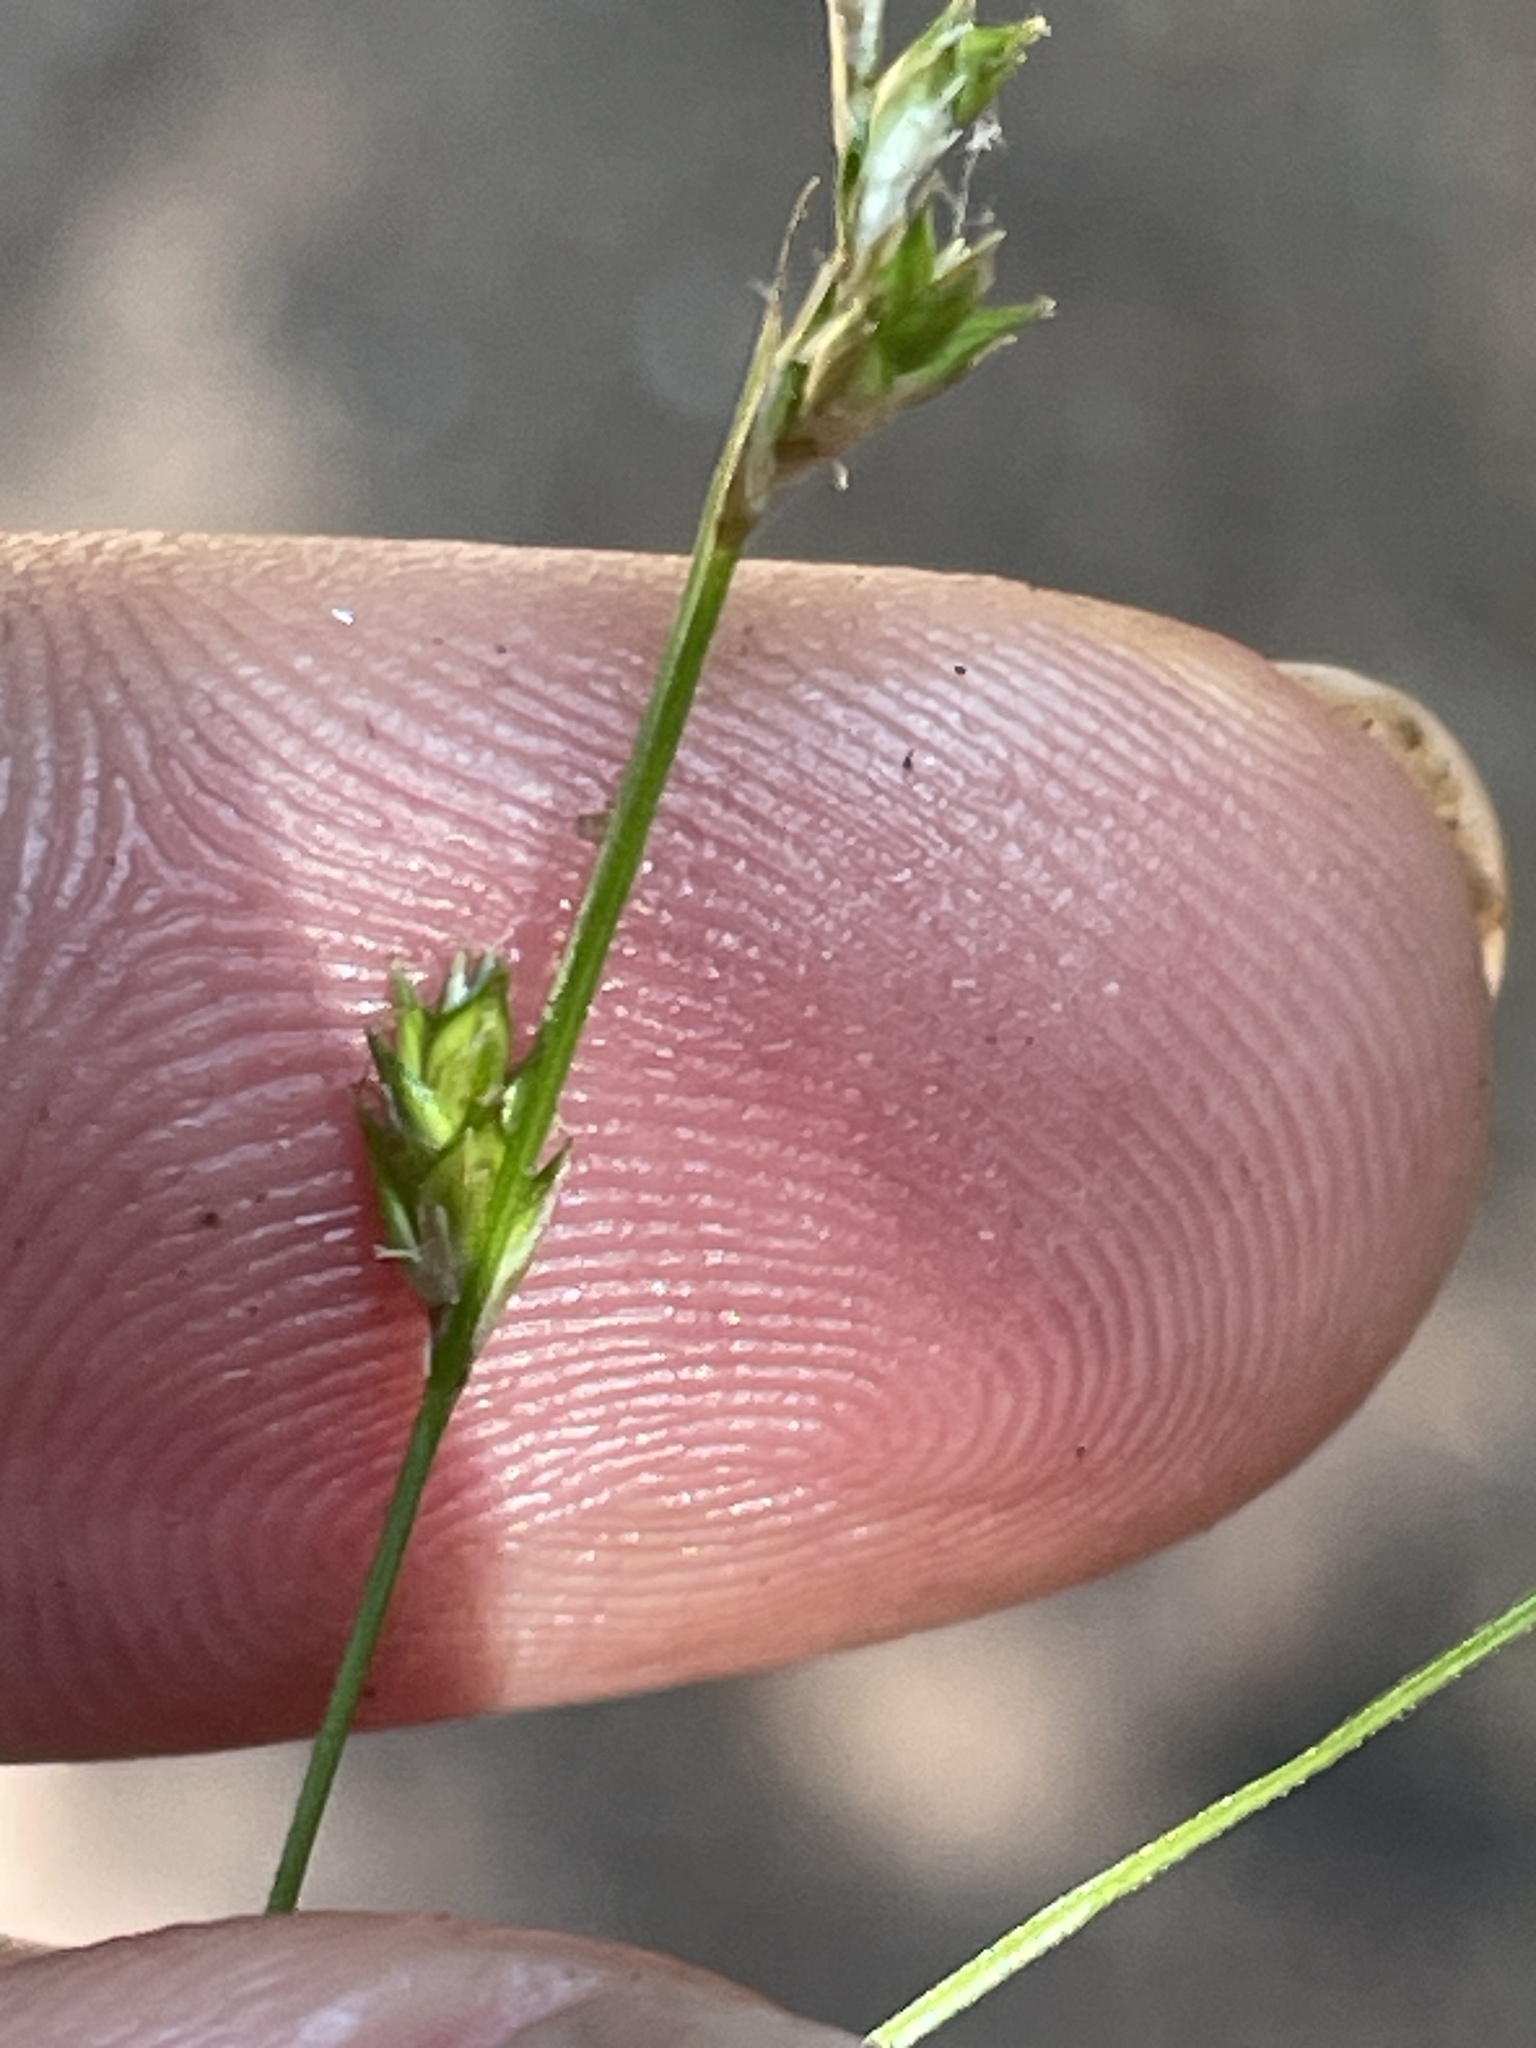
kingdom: Plantae
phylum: Tracheophyta
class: Liliopsida
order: Poales
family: Cyperaceae
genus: Carex
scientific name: Carex remota
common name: Remote sedge
